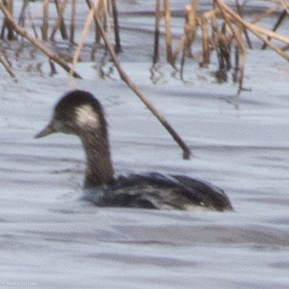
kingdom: Animalia
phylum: Chordata
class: Aves
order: Podicipediformes
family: Podicipedidae
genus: Podiceps
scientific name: Podiceps nigricollis
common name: Black-necked grebe
